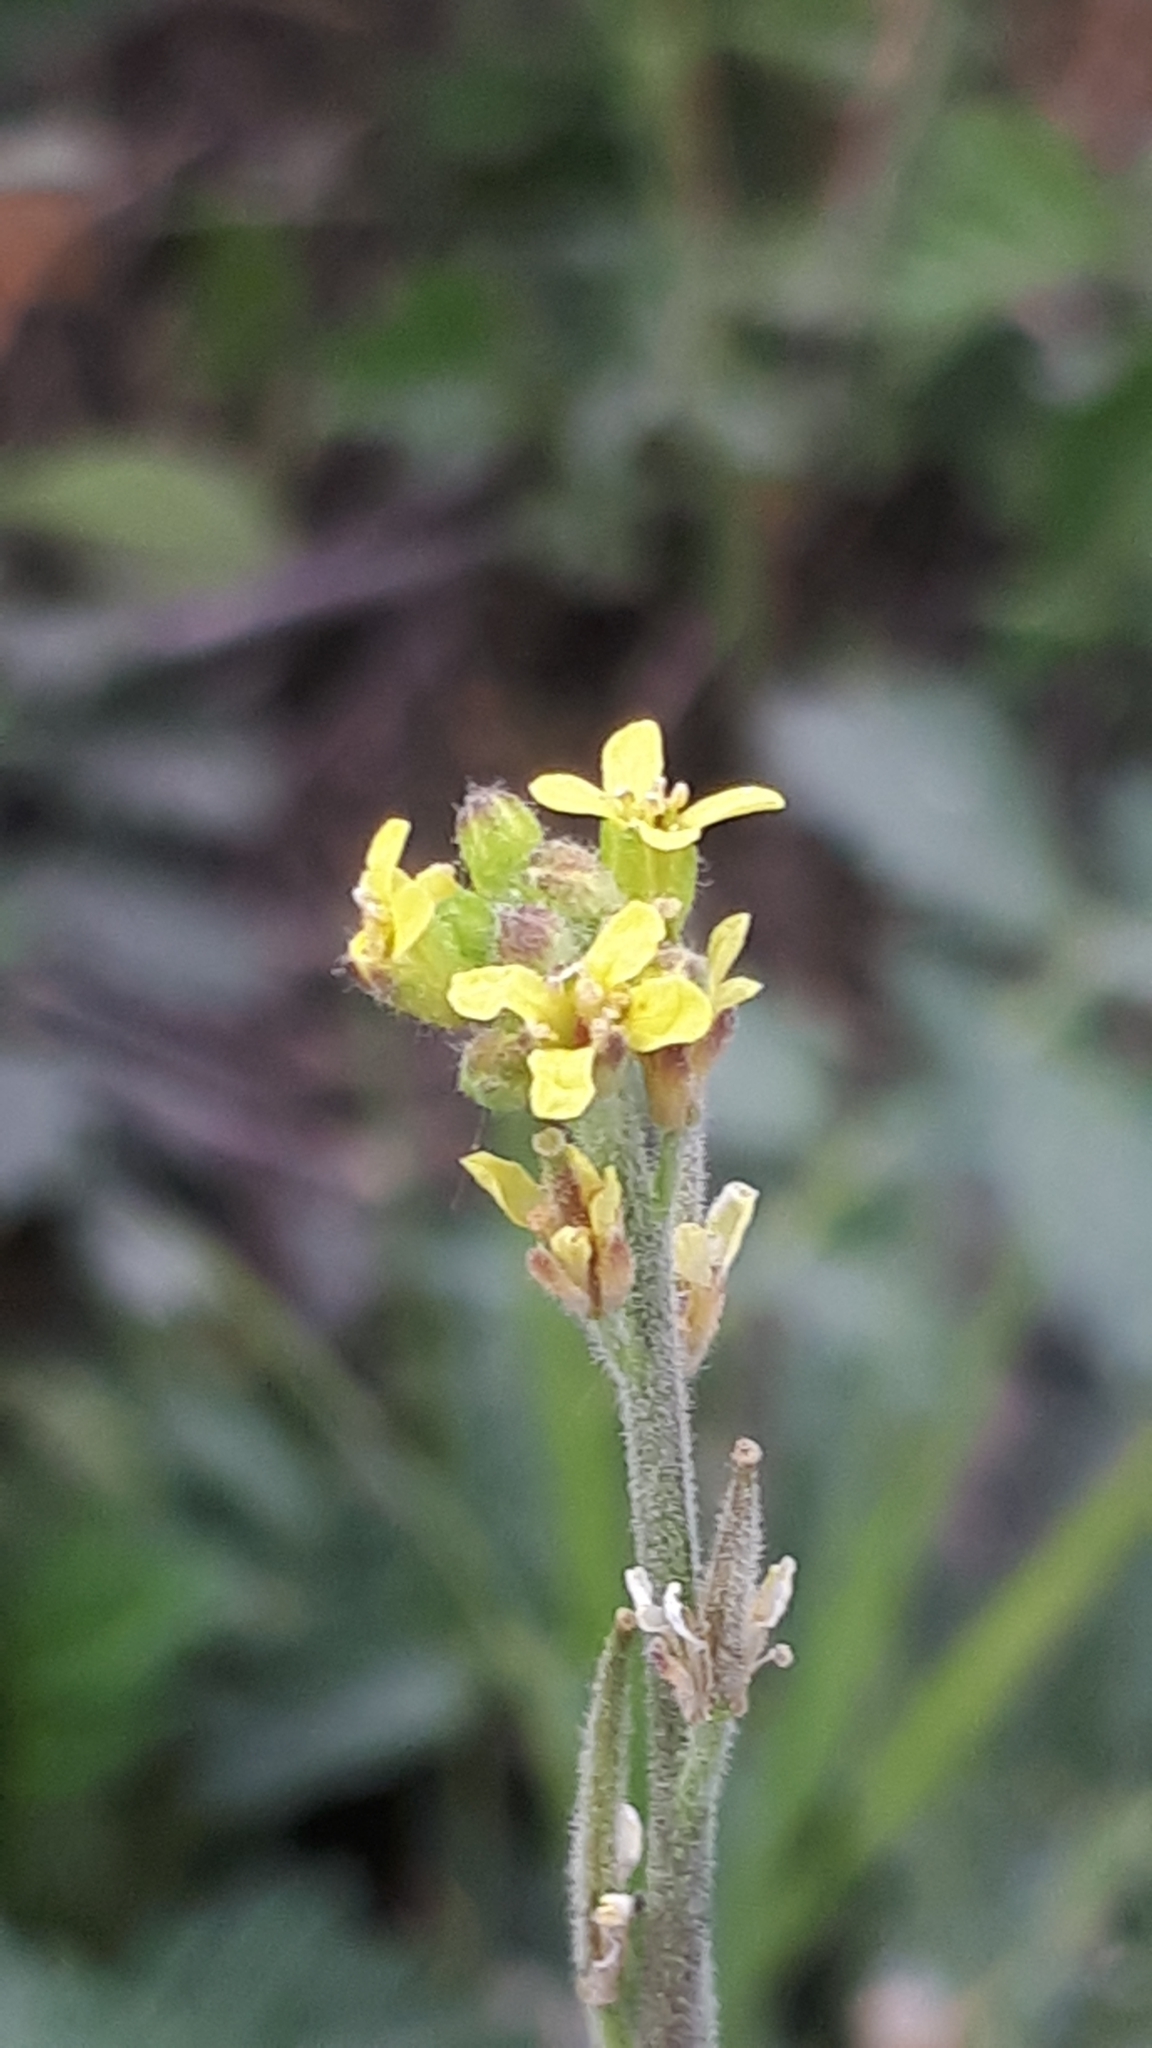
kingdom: Plantae
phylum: Tracheophyta
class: Magnoliopsida
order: Brassicales
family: Brassicaceae
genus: Sisymbrium
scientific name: Sisymbrium officinale
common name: Hedge mustard
